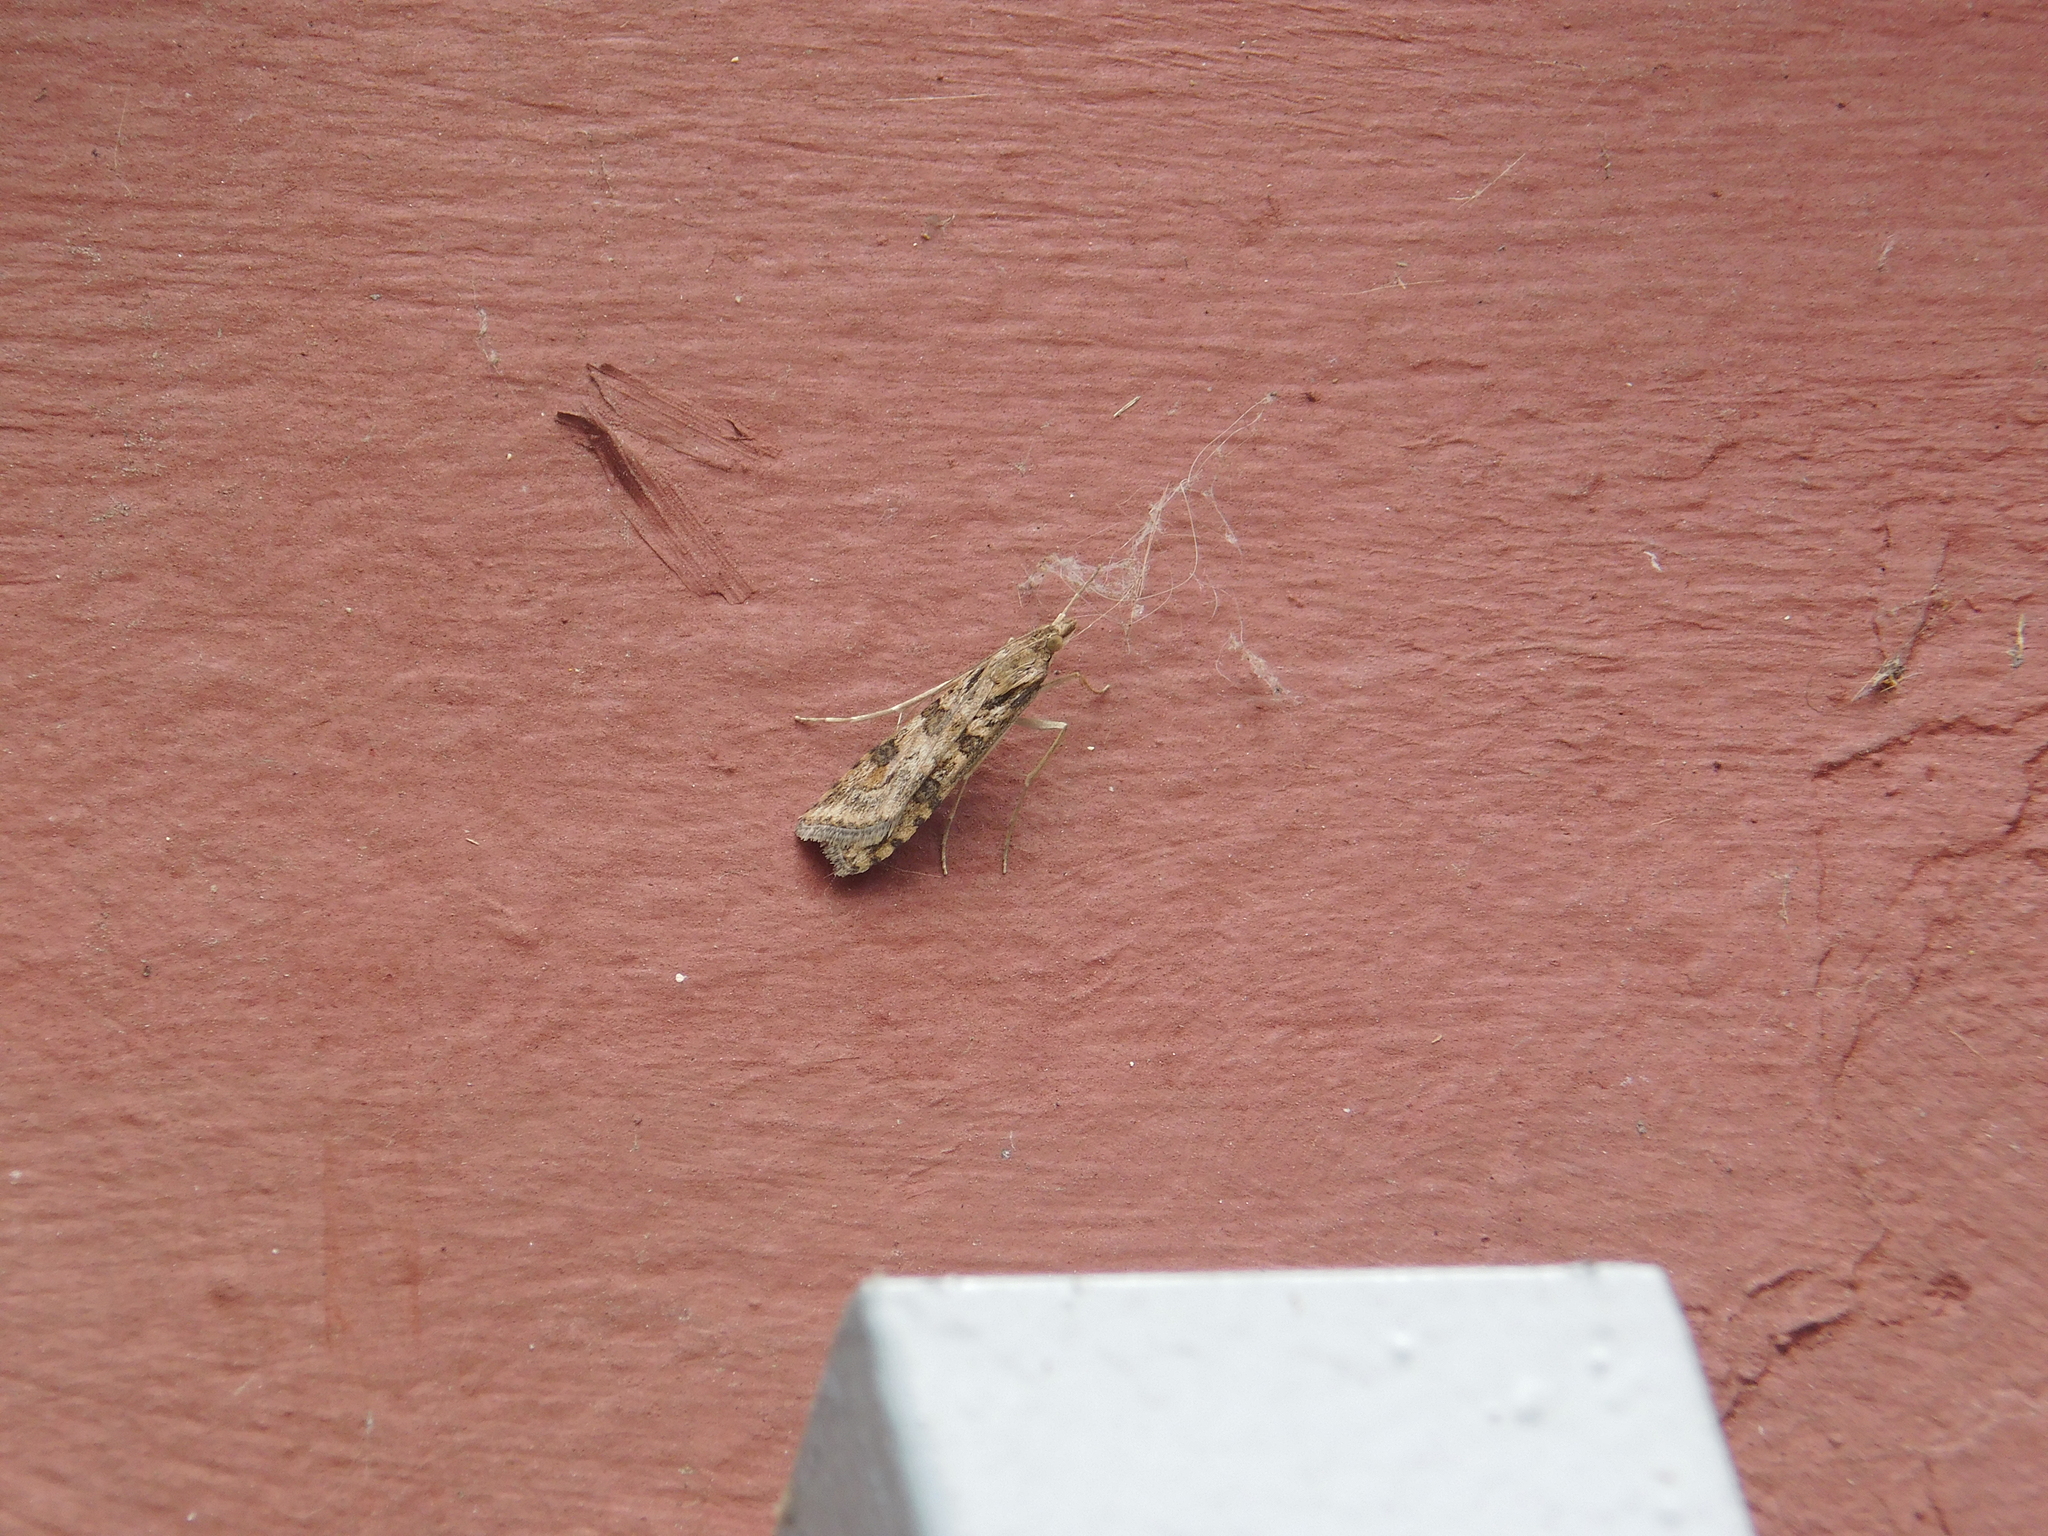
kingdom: Animalia
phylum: Arthropoda
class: Insecta
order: Lepidoptera
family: Crambidae
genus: Nomophila
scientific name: Nomophila
